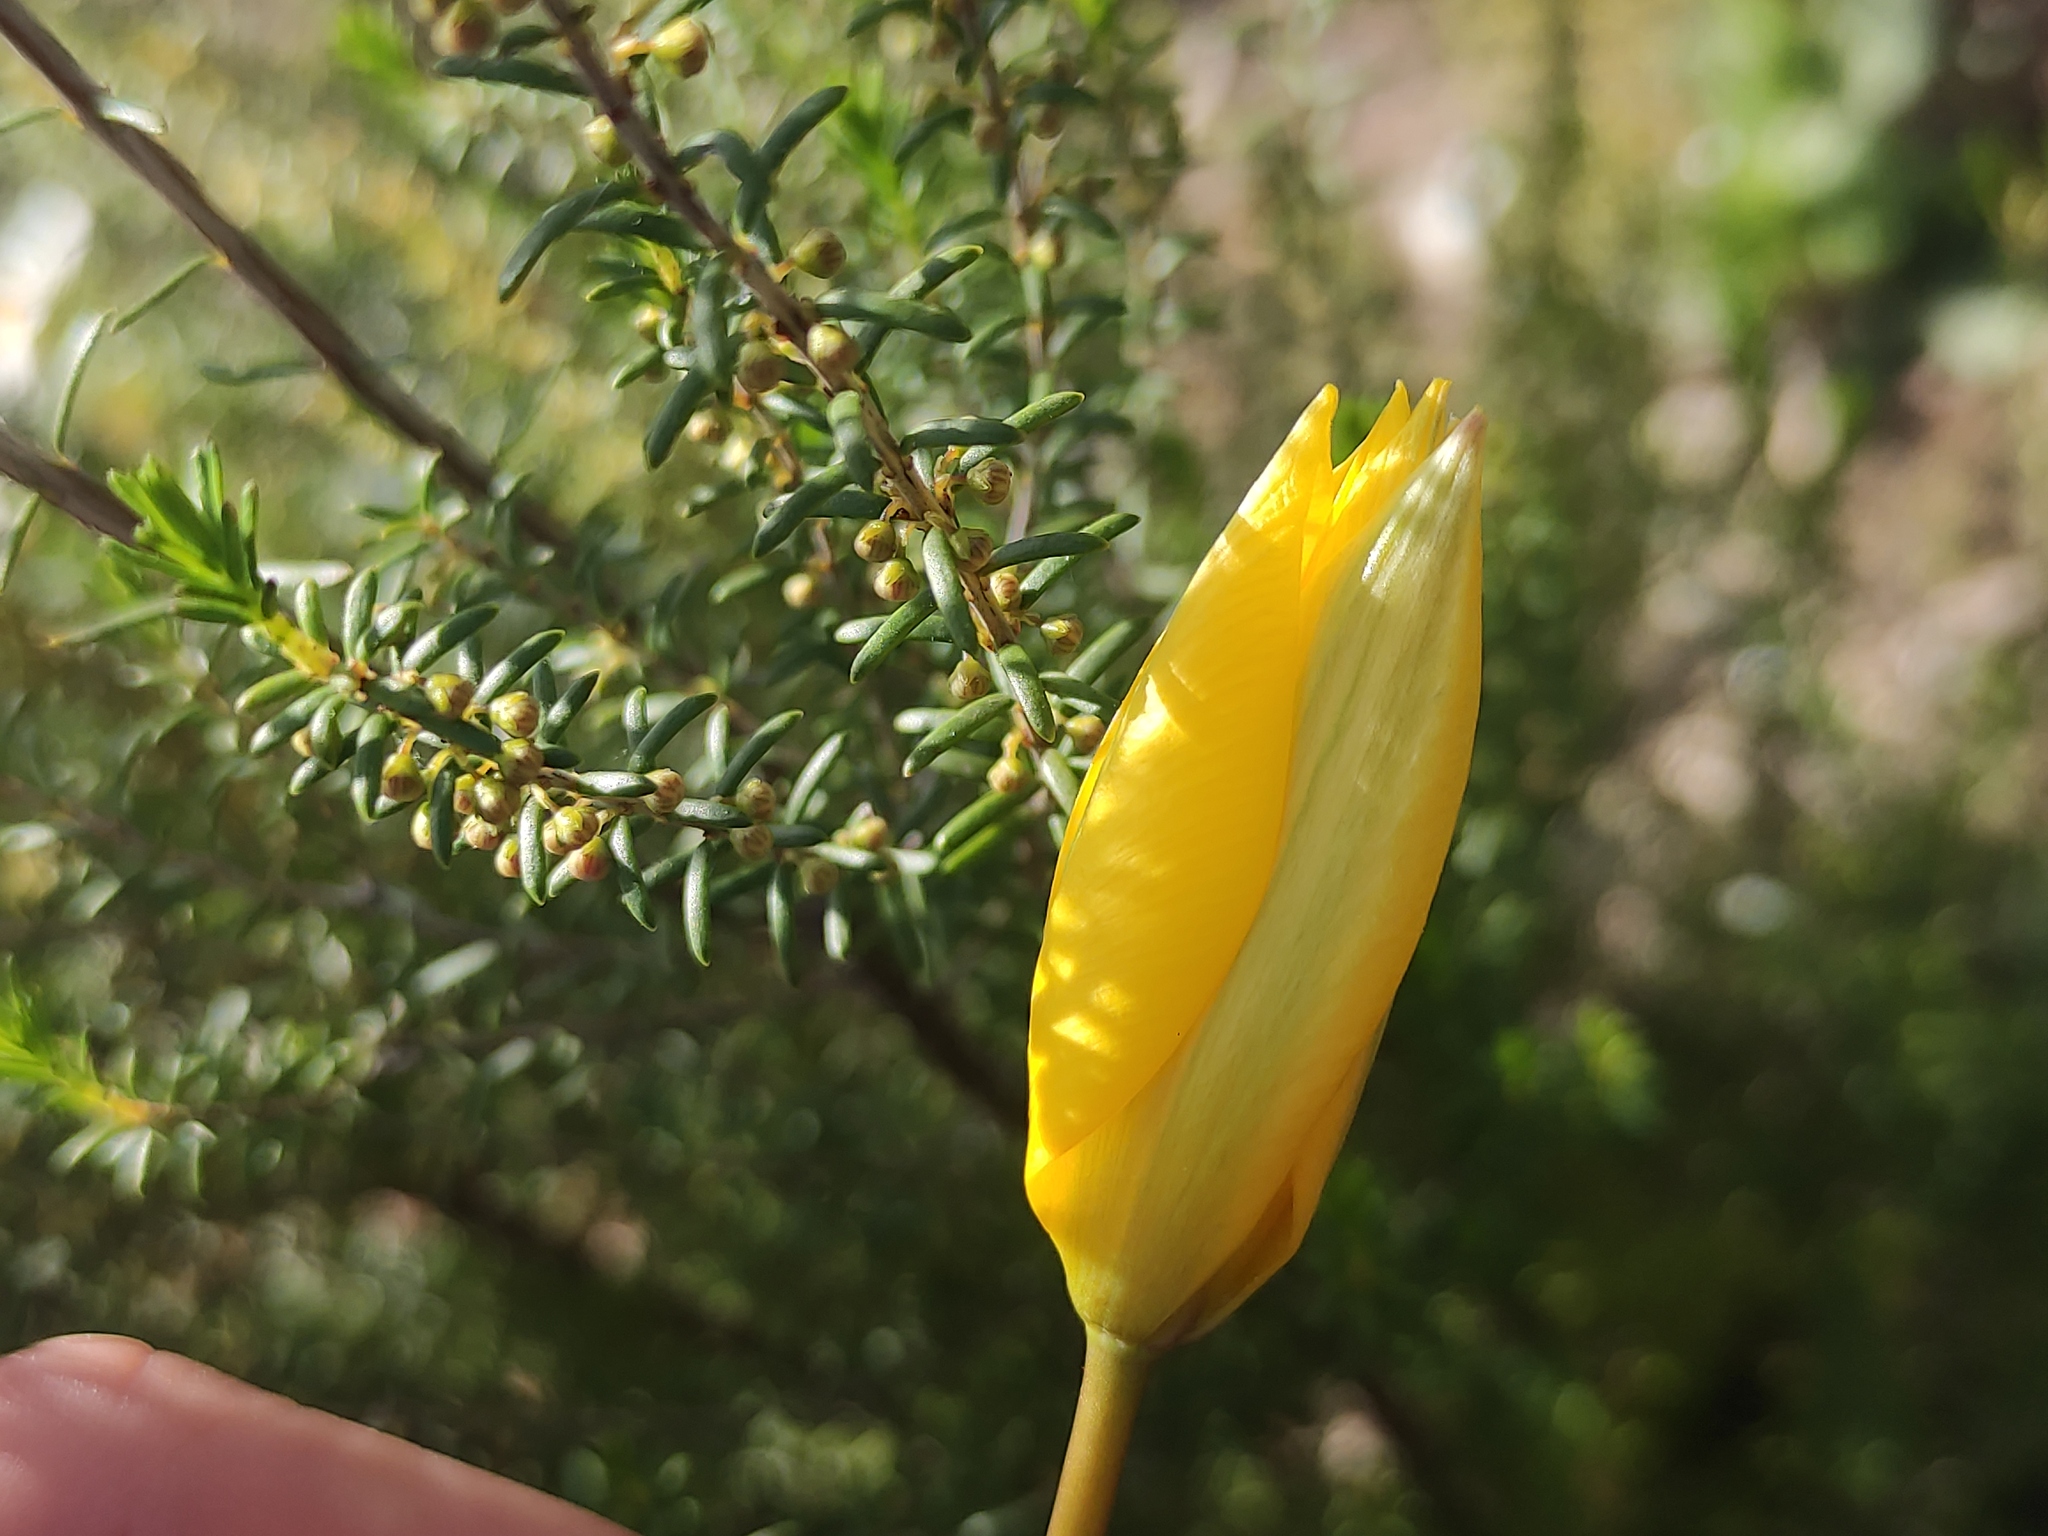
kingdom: Plantae
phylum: Tracheophyta
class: Liliopsida
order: Liliales
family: Liliaceae
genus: Tulipa
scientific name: Tulipa sylvestris
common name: Wild tulip
